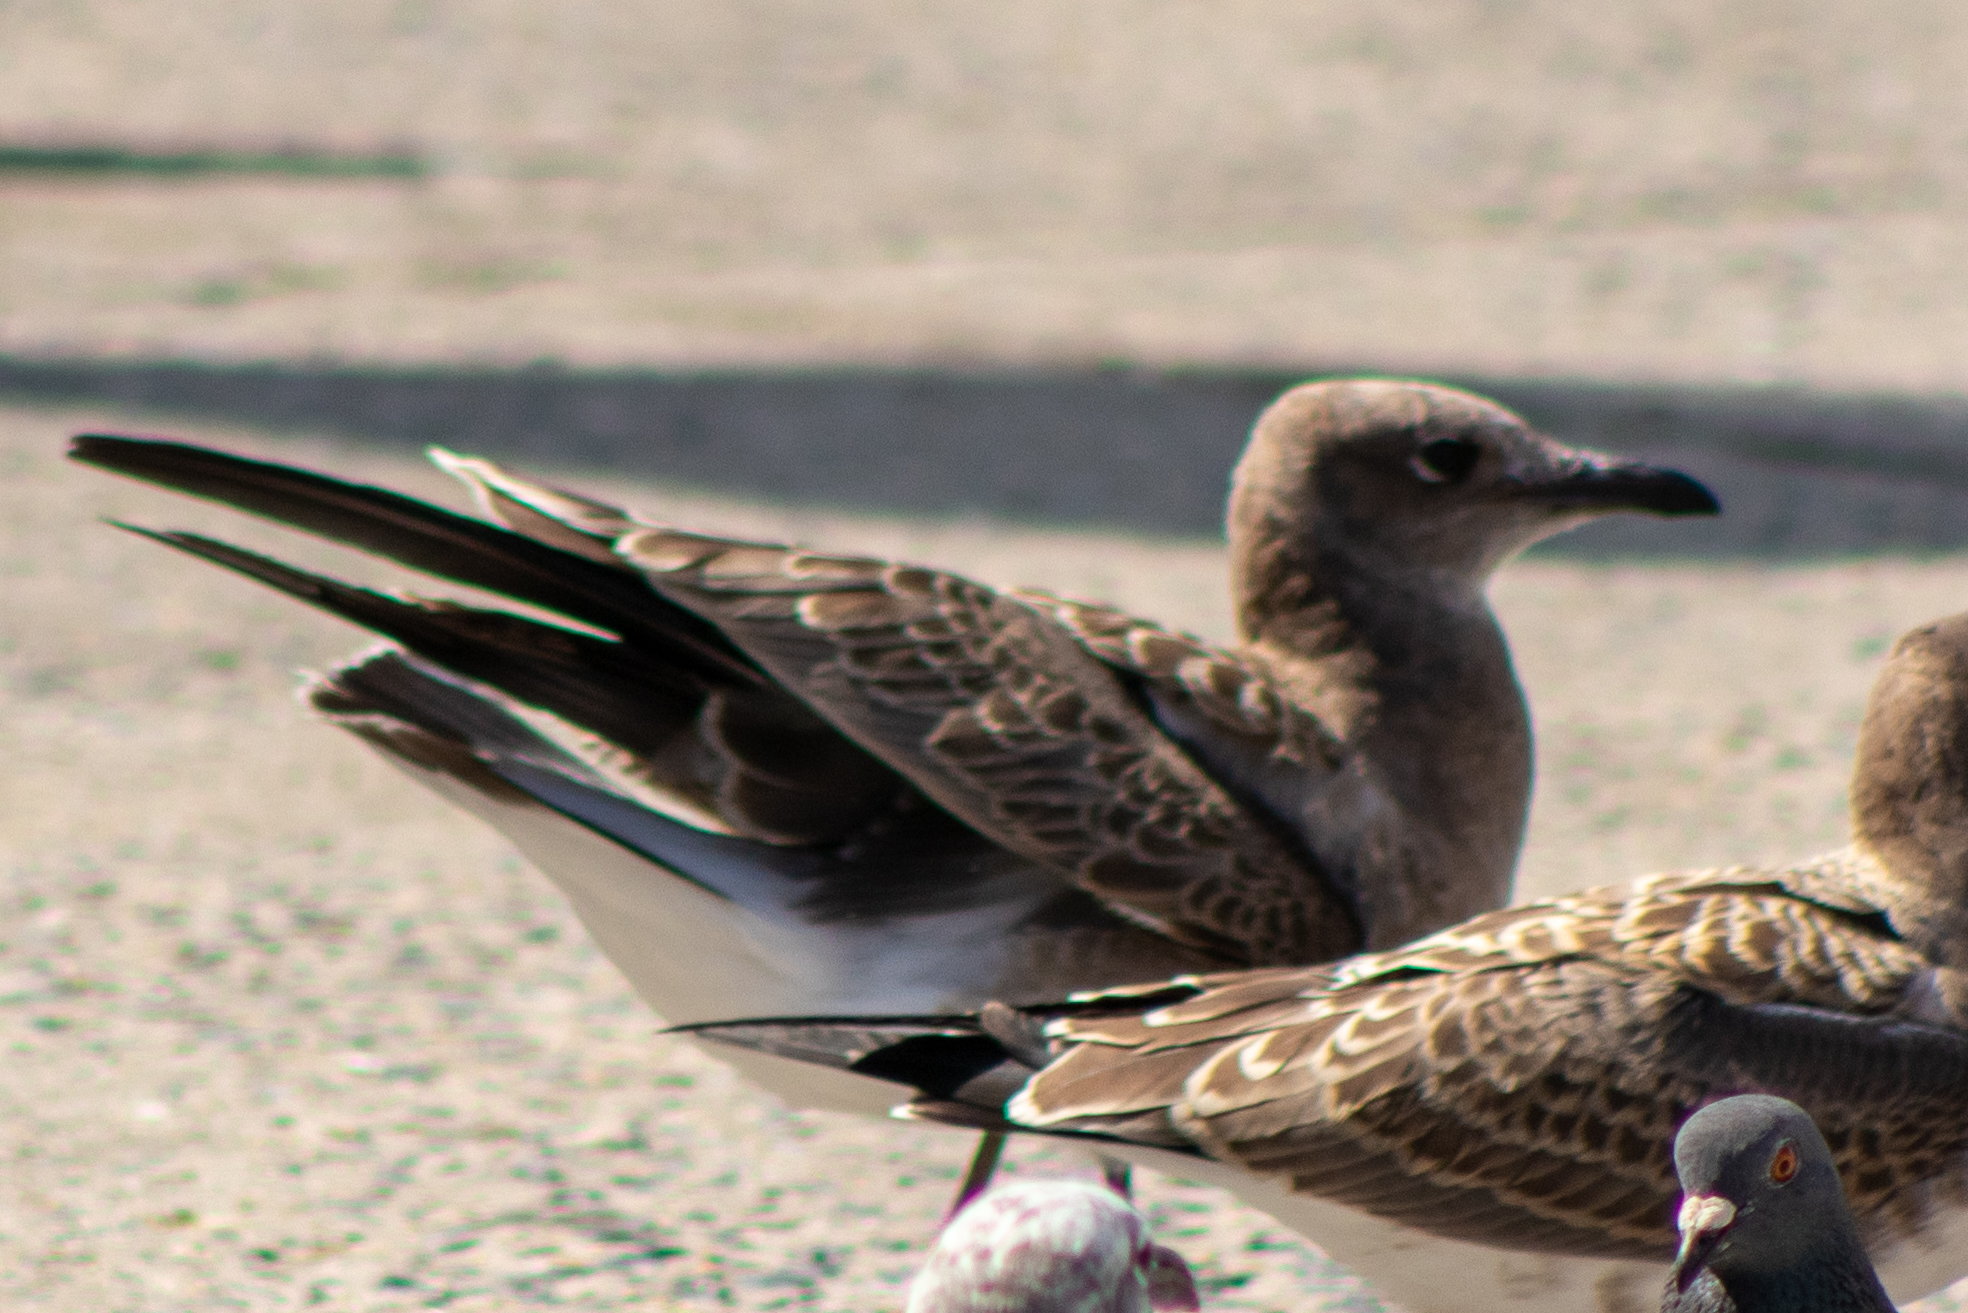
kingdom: Animalia
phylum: Chordata
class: Aves
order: Charadriiformes
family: Laridae
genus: Leucophaeus
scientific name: Leucophaeus atricilla
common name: Laughing gull
